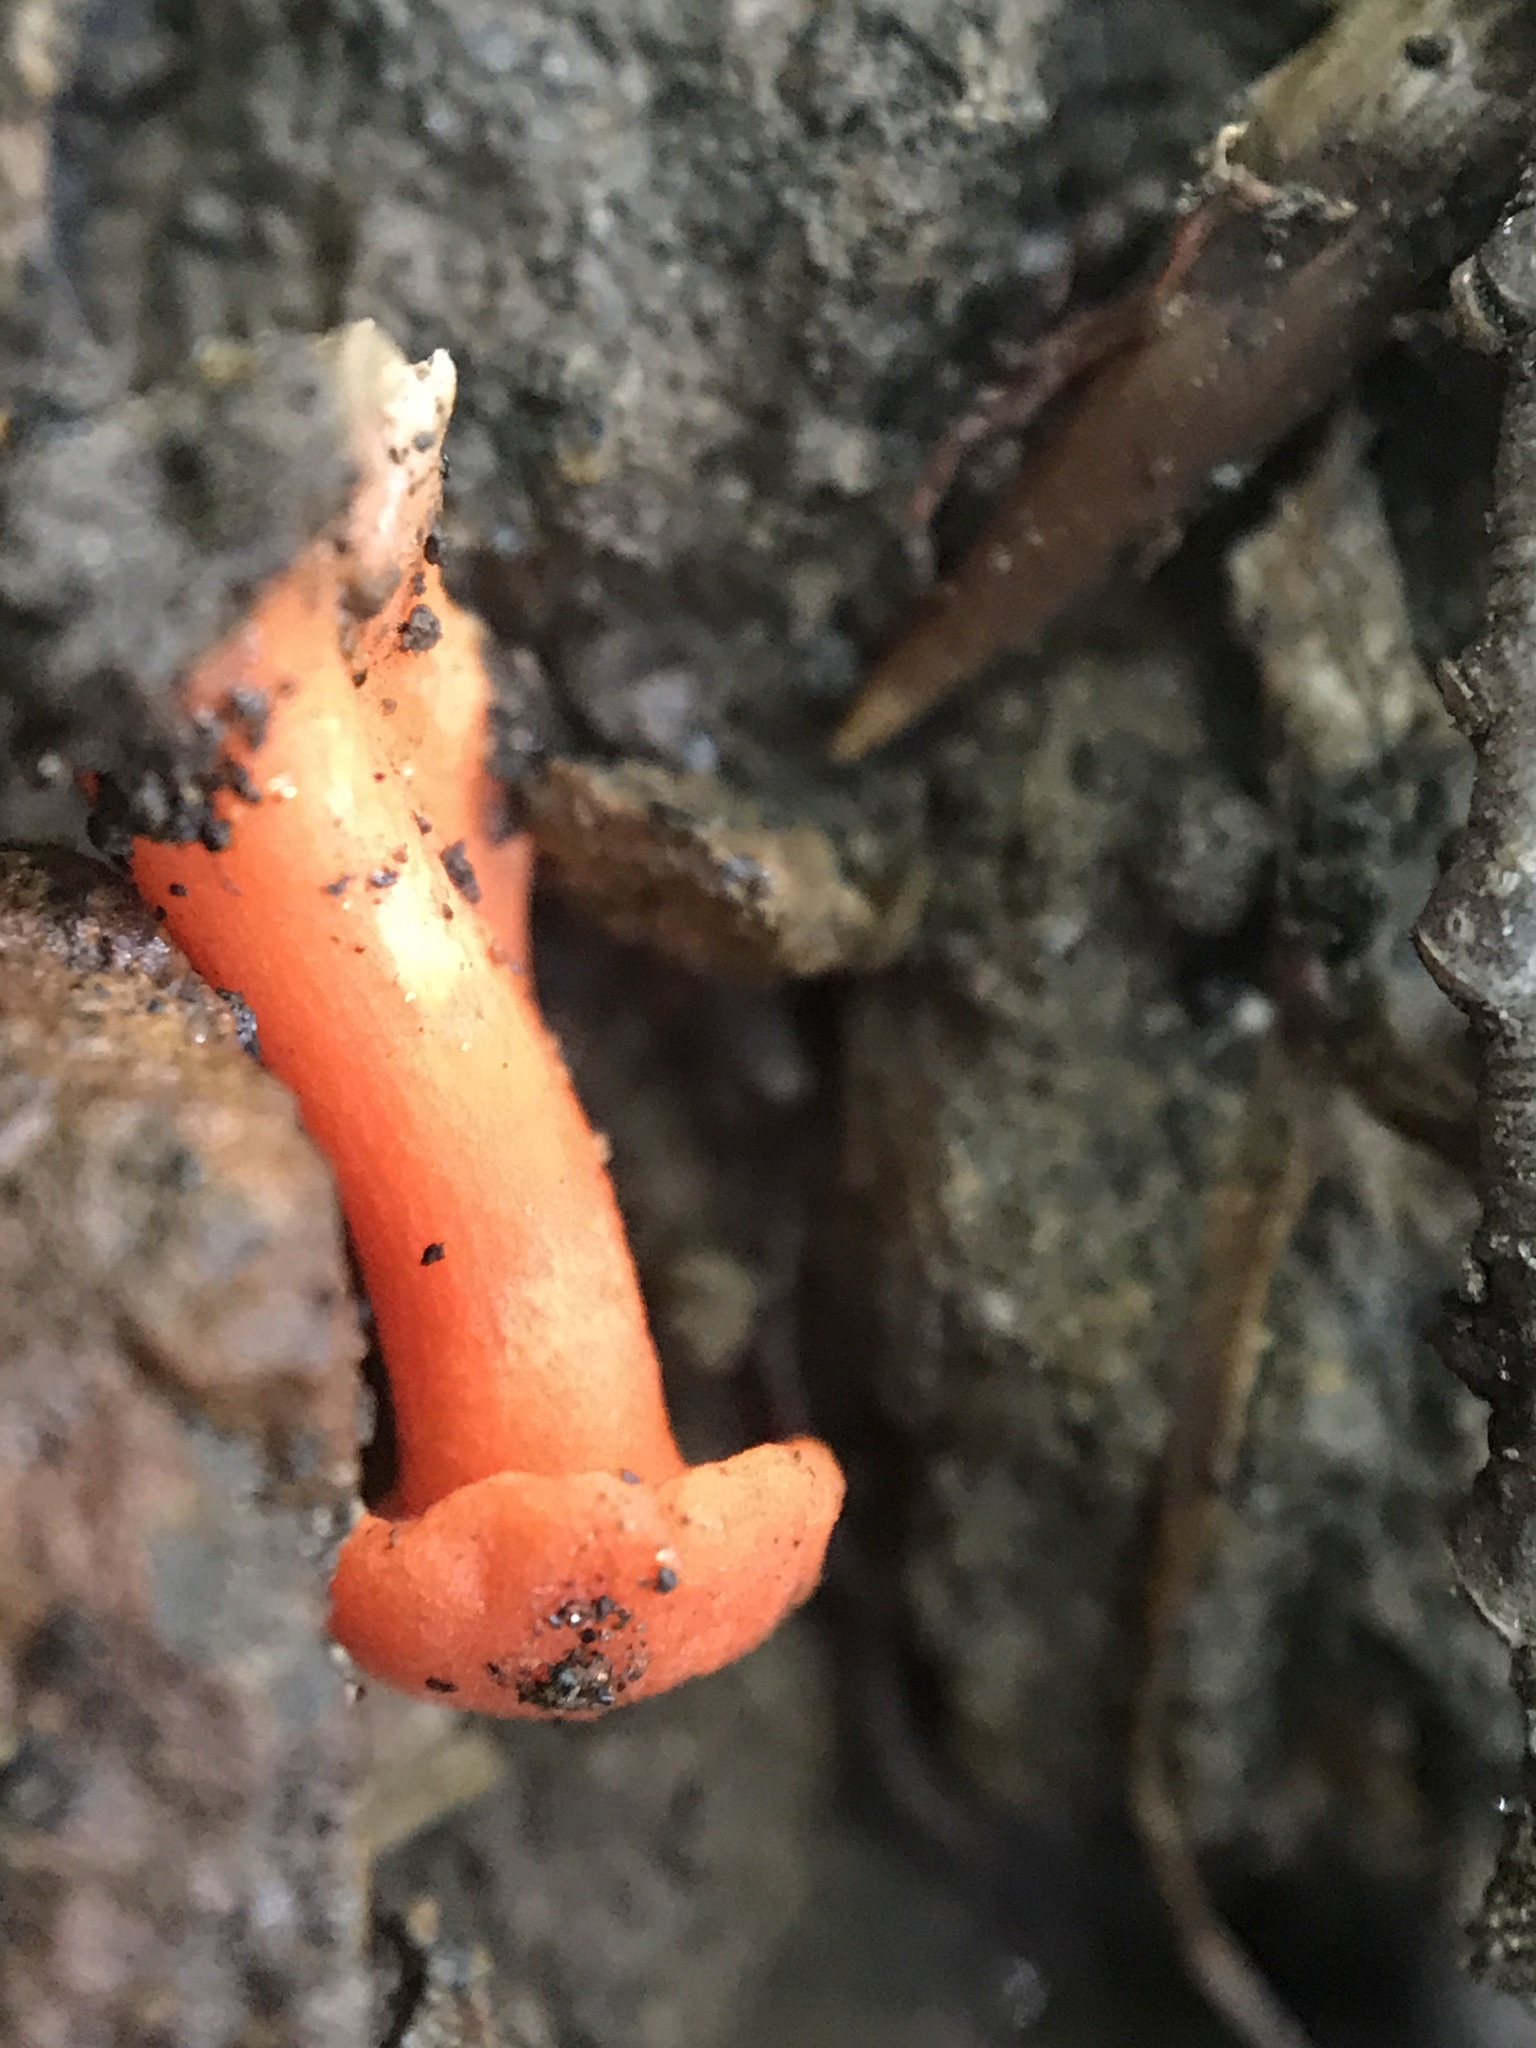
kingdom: Fungi
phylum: Basidiomycota
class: Agaricomycetes
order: Cantharellales
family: Hydnaceae
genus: Cantharellus
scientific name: Cantharellus cinnabarinus
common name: Cinnabar chanterelle
